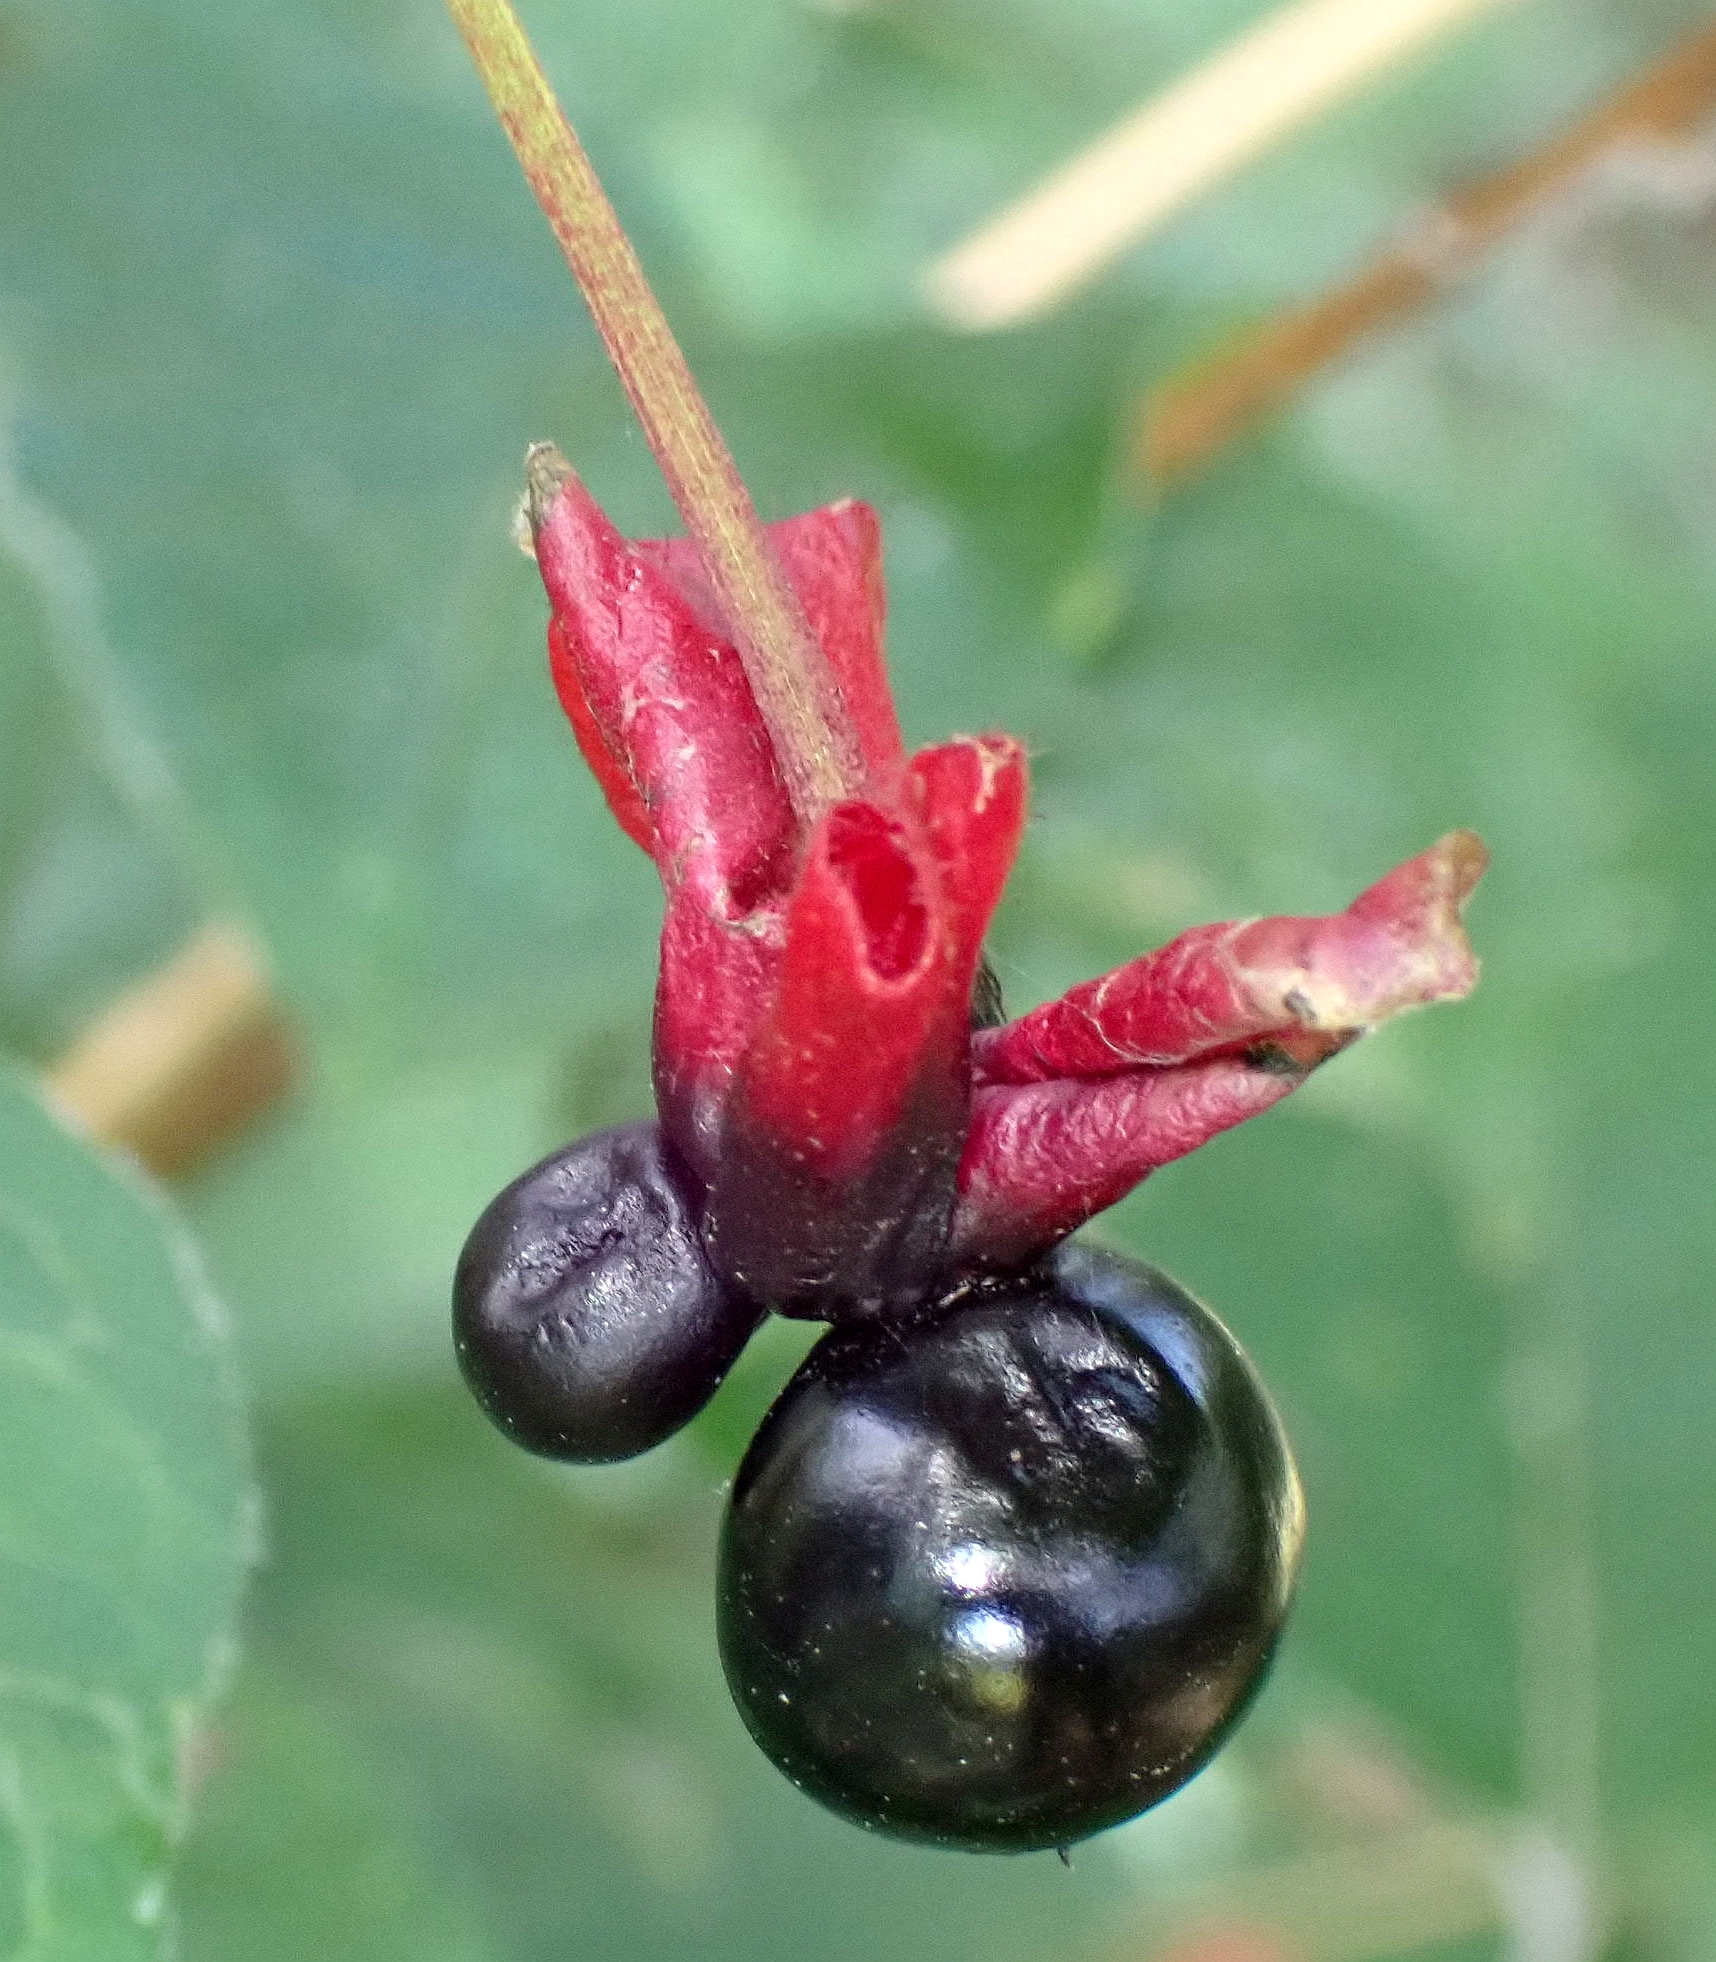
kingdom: Plantae
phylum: Tracheophyta
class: Magnoliopsida
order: Dipsacales
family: Caprifoliaceae
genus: Lonicera
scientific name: Lonicera involucrata
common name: Californian honeysuckle
